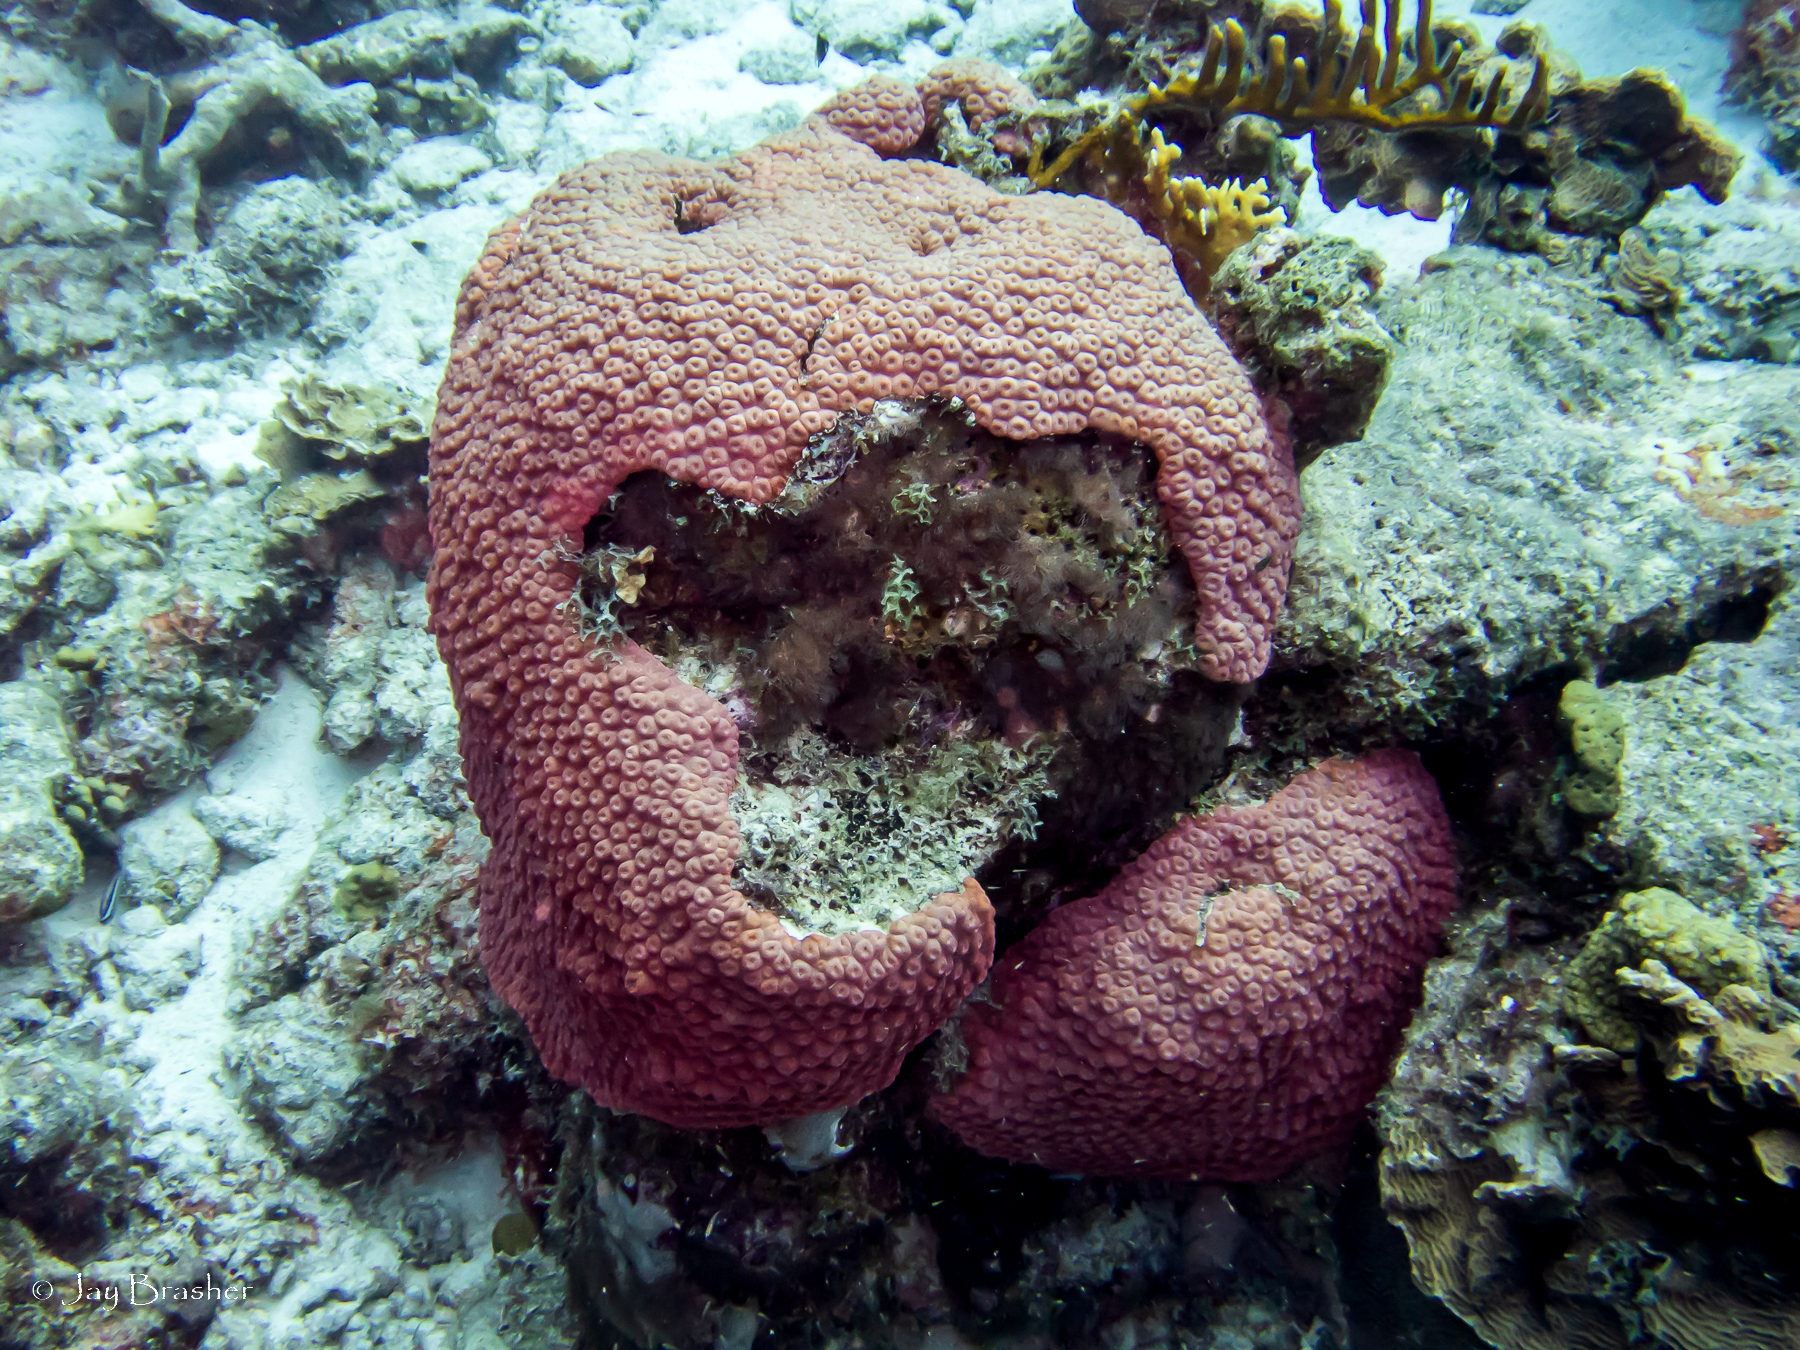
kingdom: Animalia
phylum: Cnidaria
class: Anthozoa
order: Scleractinia
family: Montastraeidae
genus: Montastraea
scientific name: Montastraea cavernosa
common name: Great star coral
